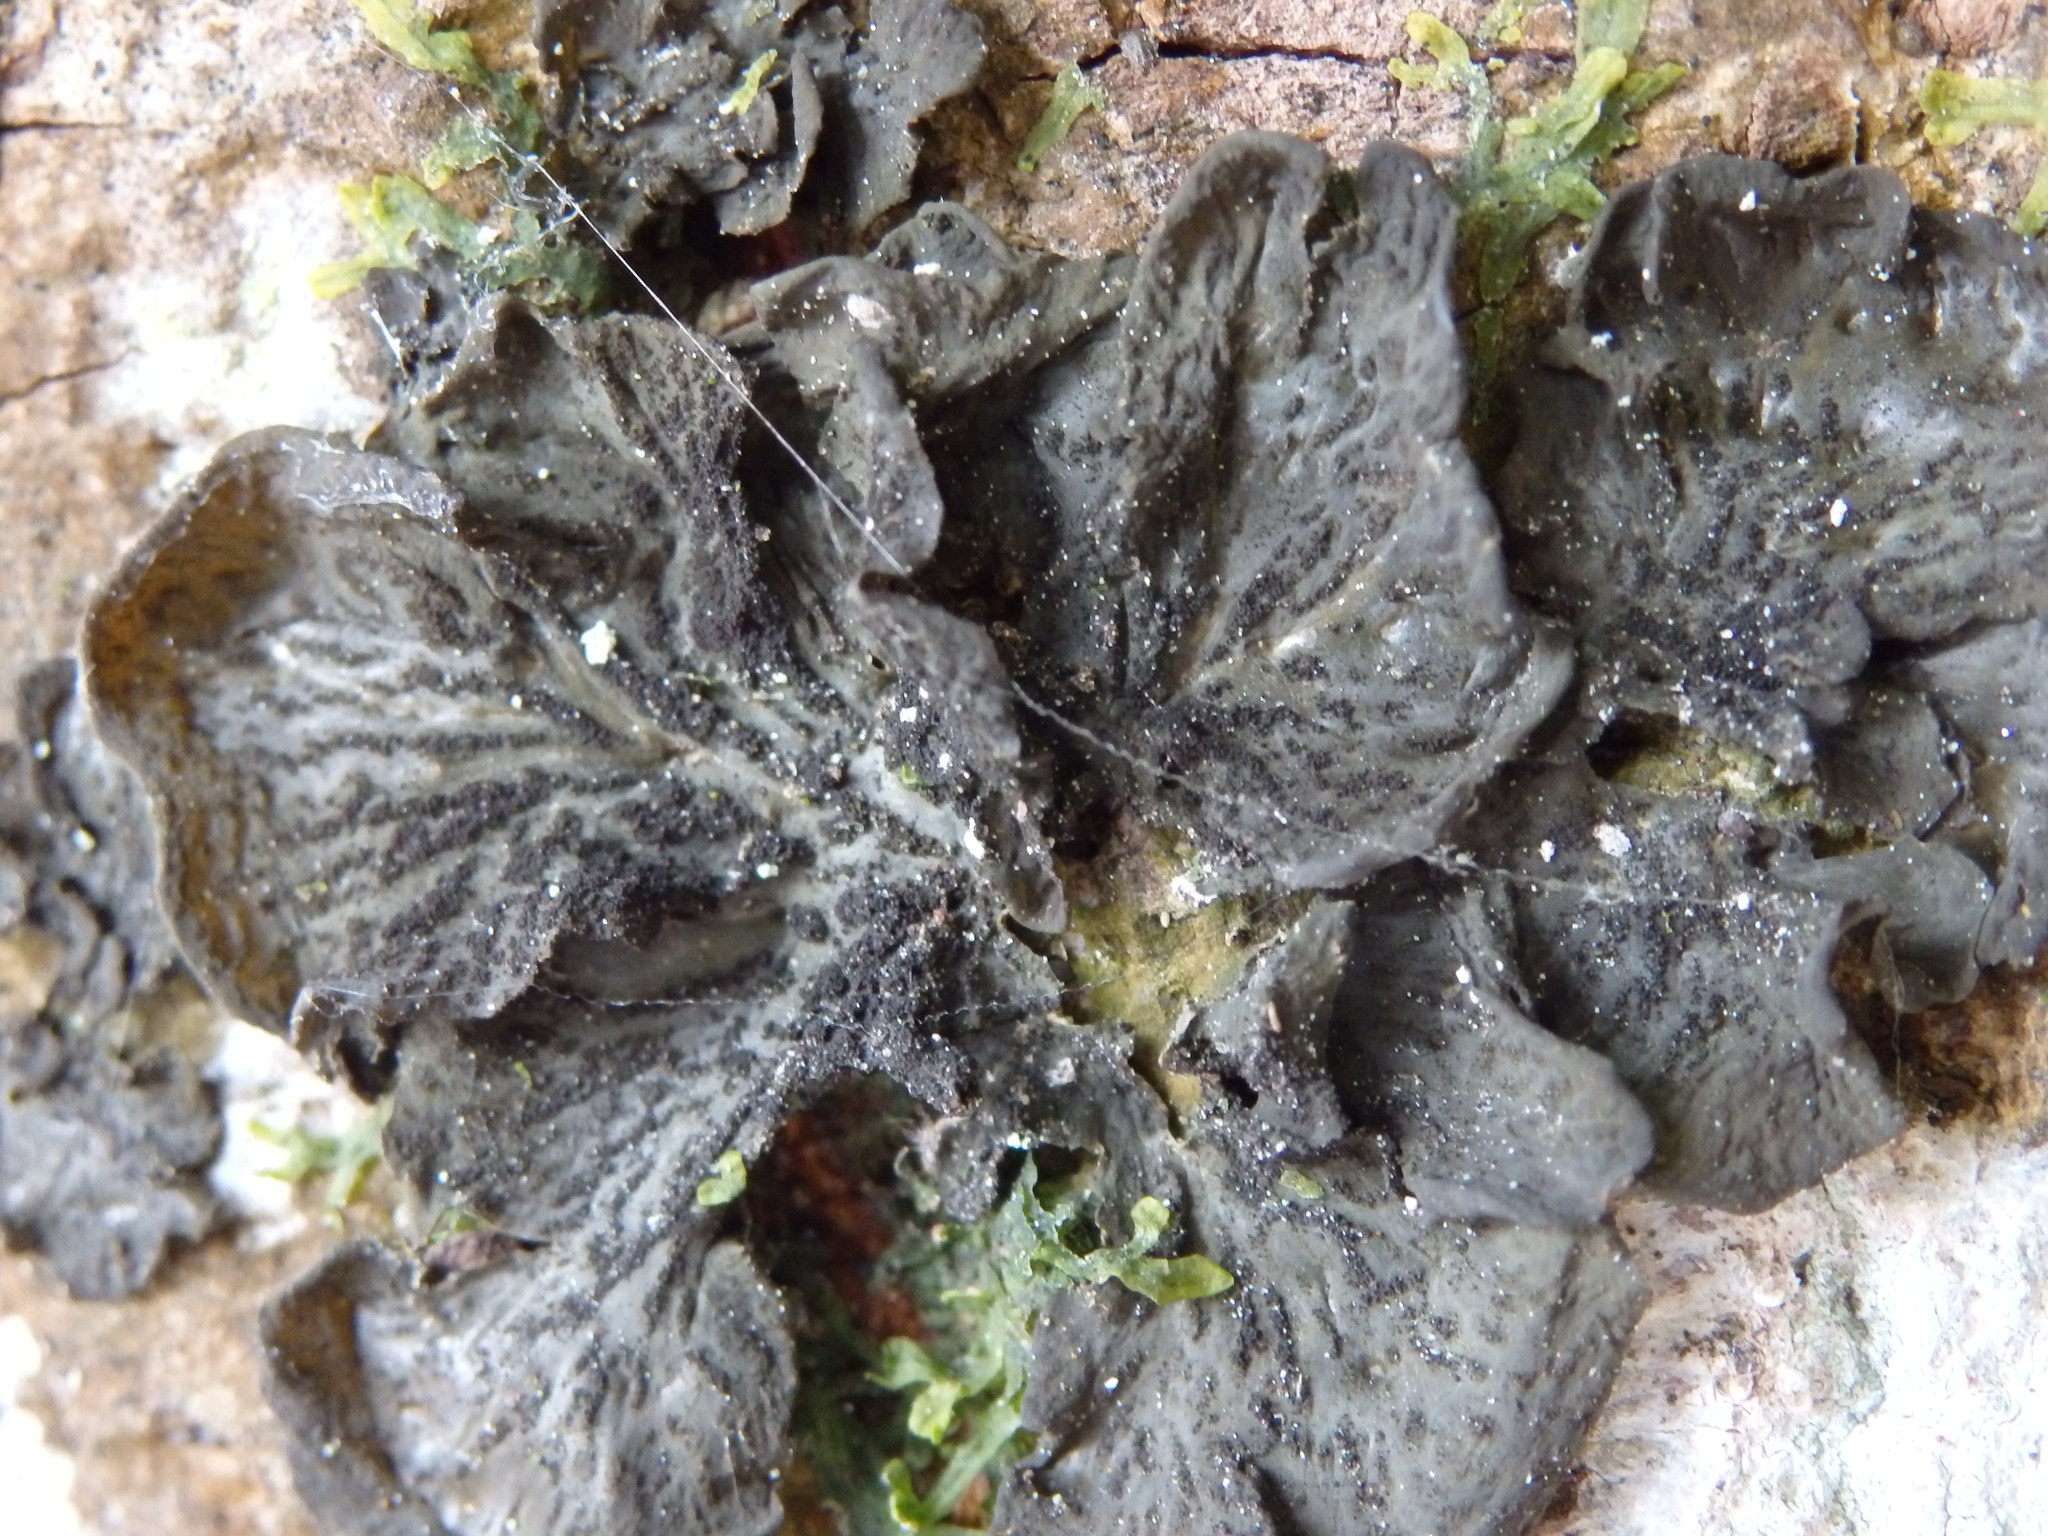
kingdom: Fungi
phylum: Ascomycota
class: Lecanoromycetes
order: Peltigerales
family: Collemataceae
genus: Collema
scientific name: Collema furfuraceum
